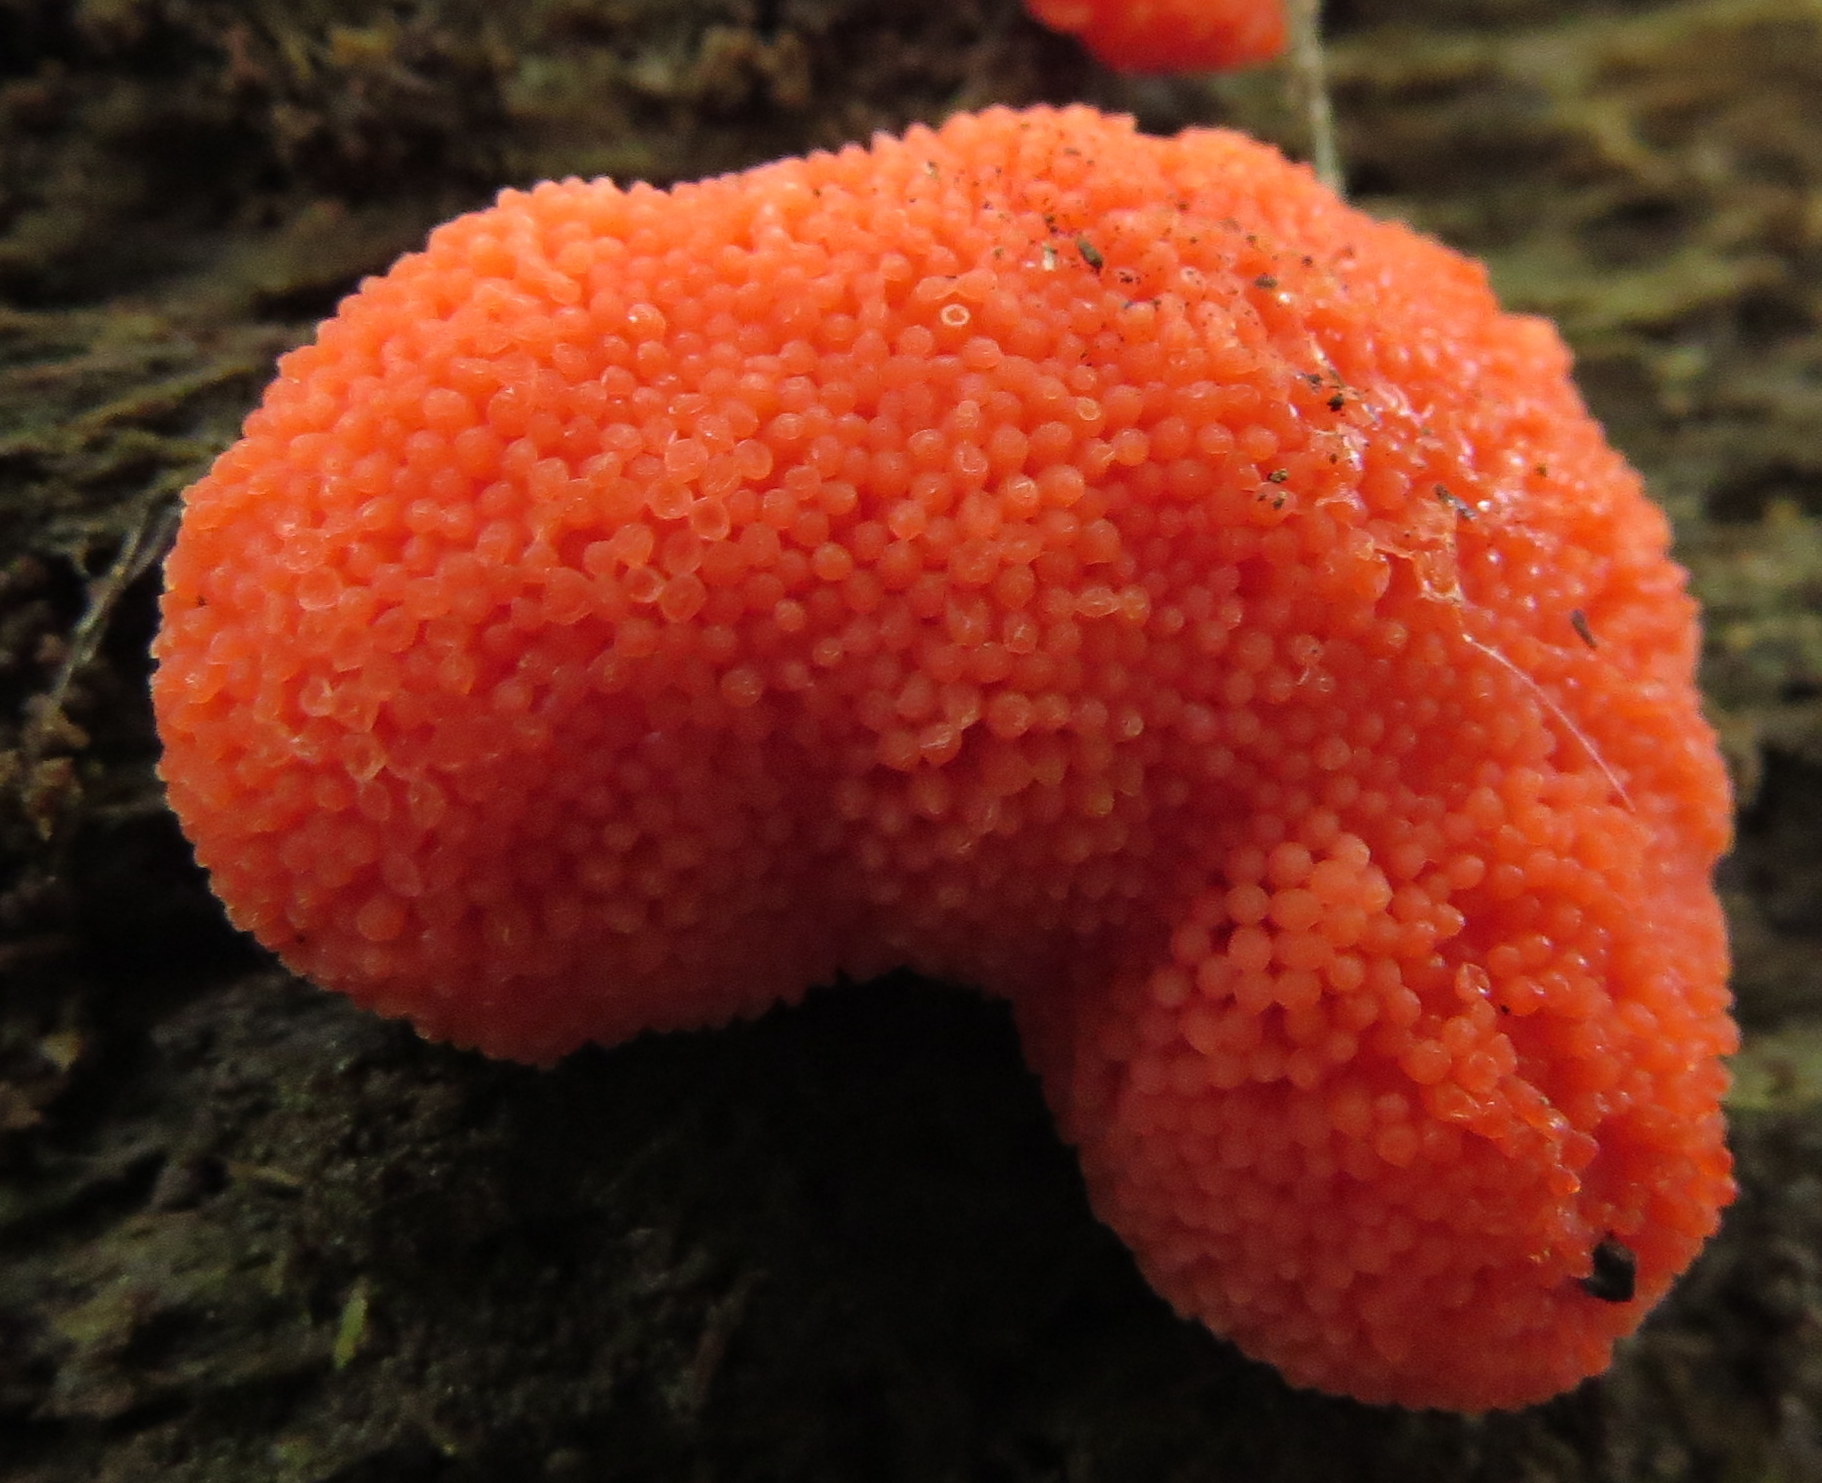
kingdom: Protozoa
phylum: Mycetozoa
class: Myxomycetes
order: Cribrariales
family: Tubiferaceae
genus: Tubifera
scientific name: Tubifera ferruginosa
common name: Red raspberry slime mold
